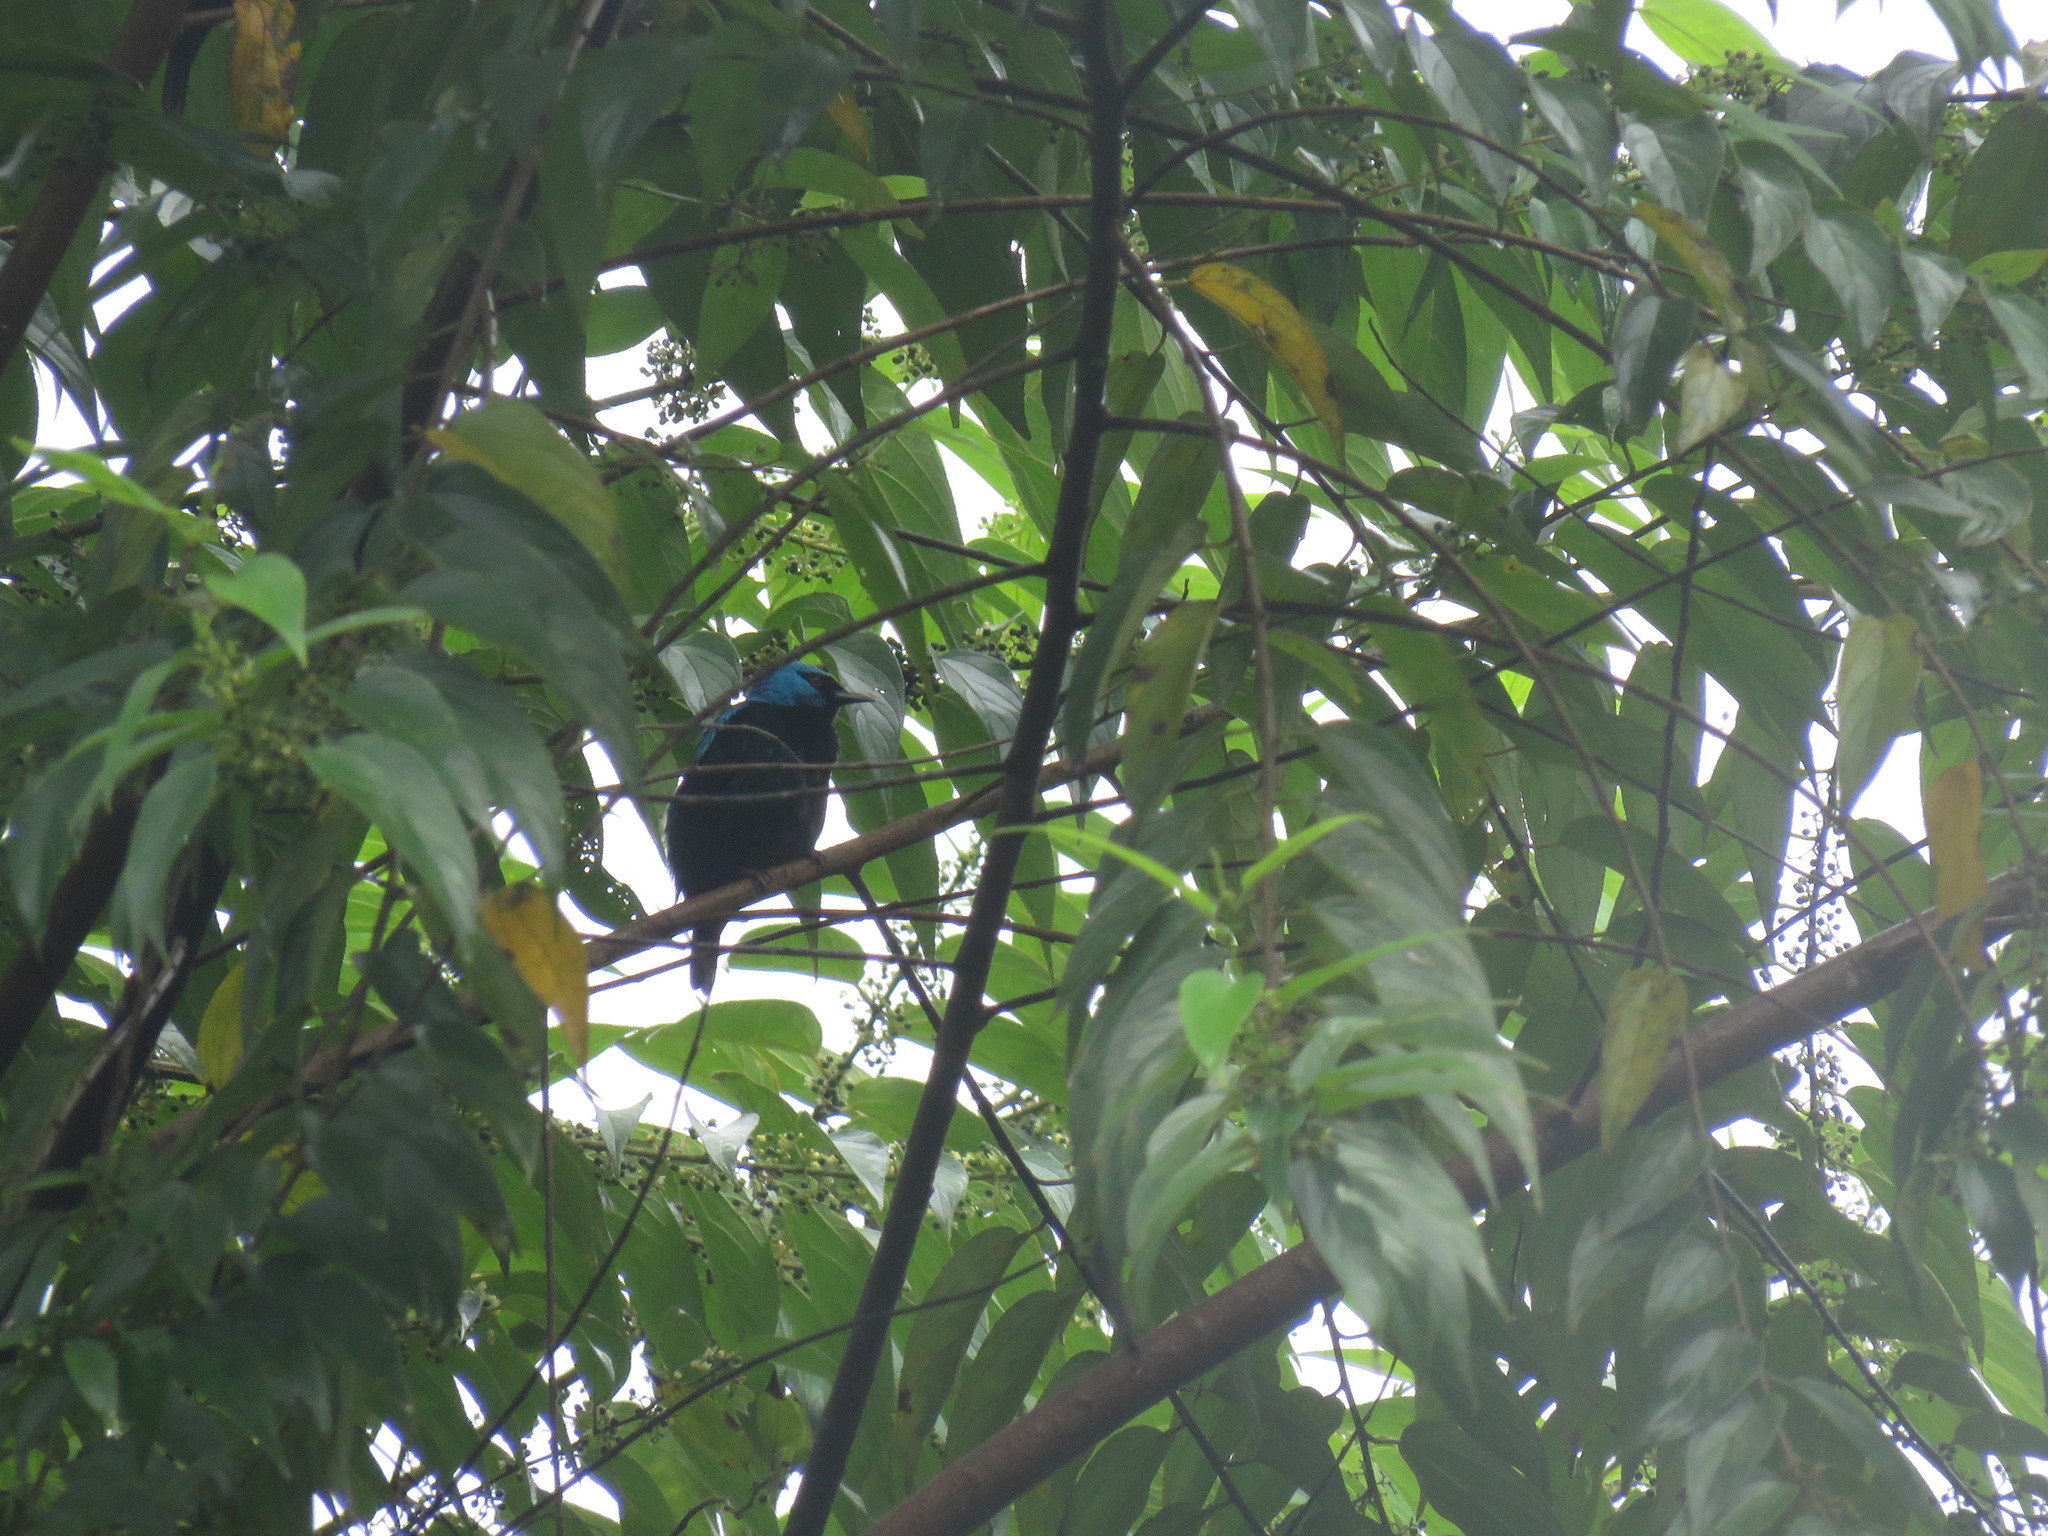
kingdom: Animalia
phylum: Chordata
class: Aves
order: Passeriformes
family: Thraupidae
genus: Dacnis
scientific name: Dacnis venusta
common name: Scarlet-thighed dacnis
